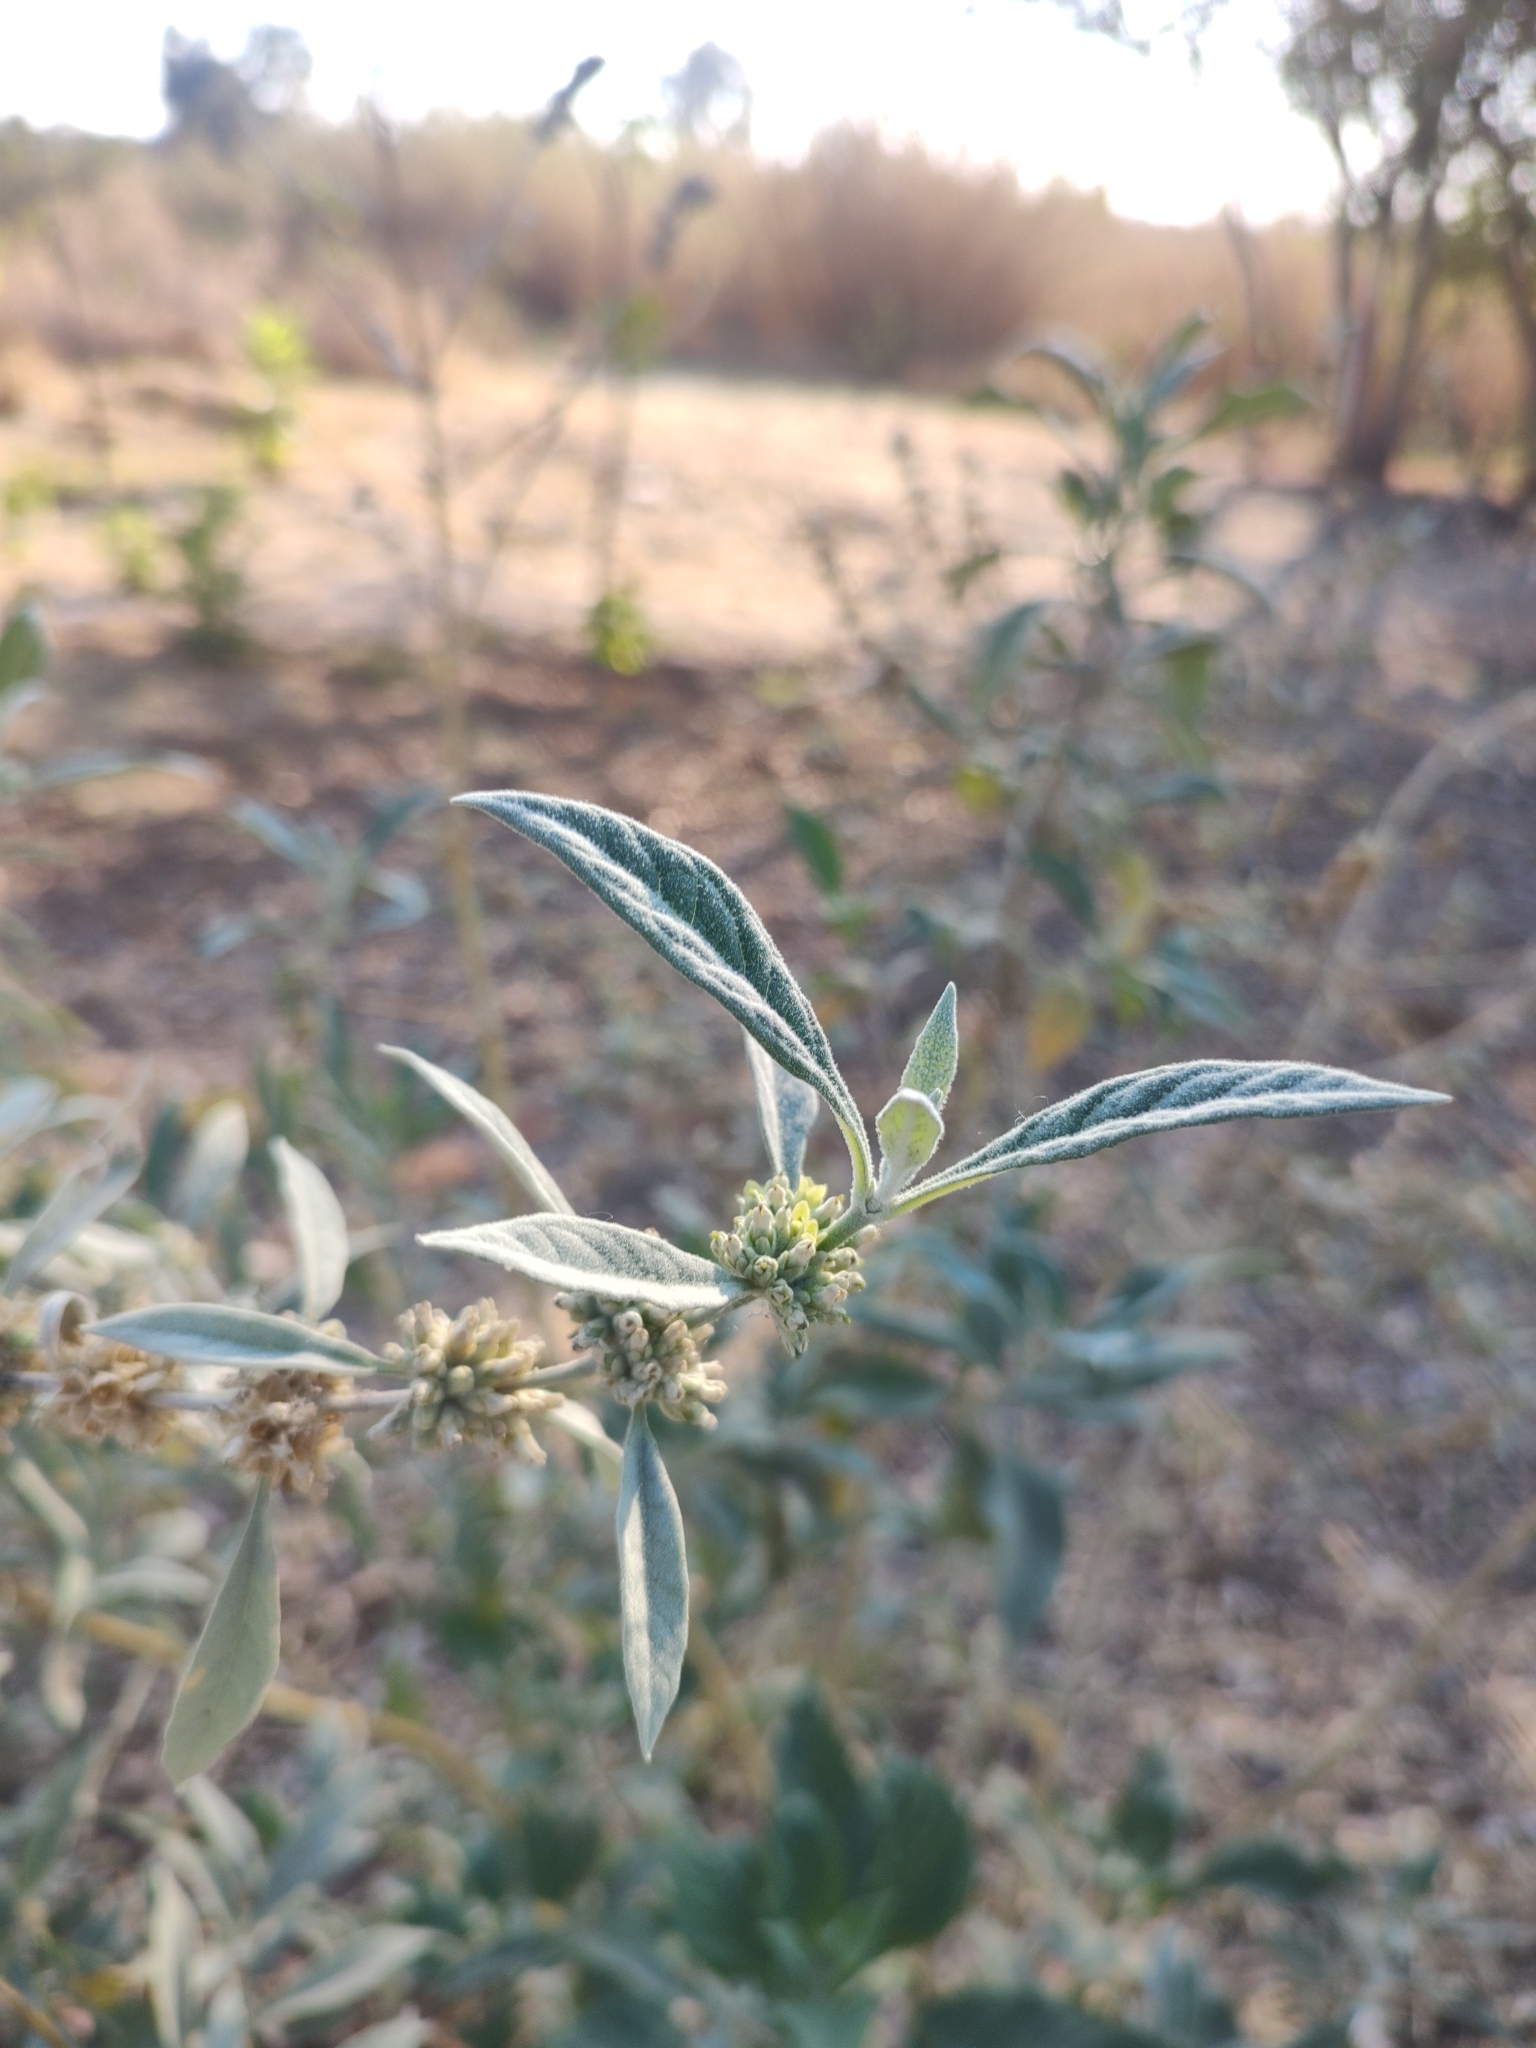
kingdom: Plantae
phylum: Tracheophyta
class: Magnoliopsida
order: Lamiales
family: Scrophulariaceae
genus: Buddleja
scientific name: Buddleja sessiliflora
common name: Rio grande butterfly-bush
